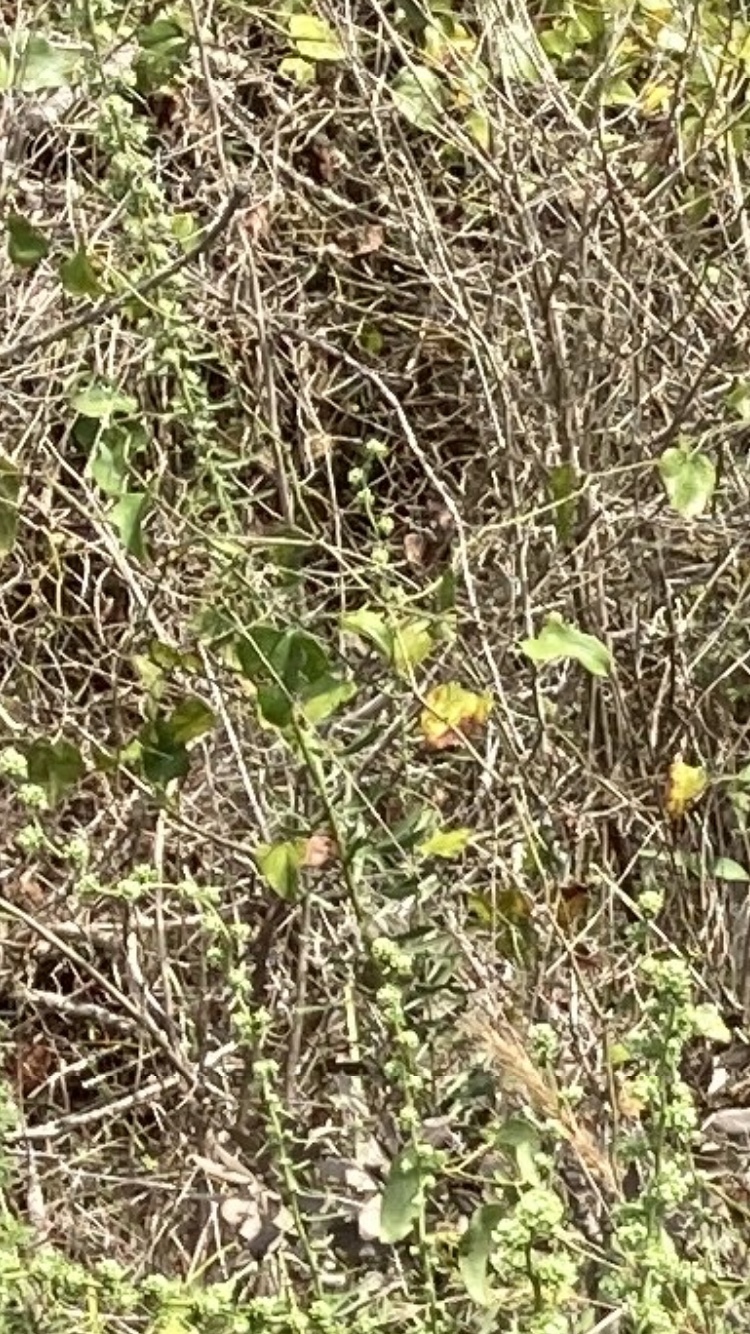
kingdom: Plantae
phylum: Tracheophyta
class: Liliopsida
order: Liliales
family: Smilacaceae
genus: Smilax
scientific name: Smilax bona-nox
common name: Catbrier
